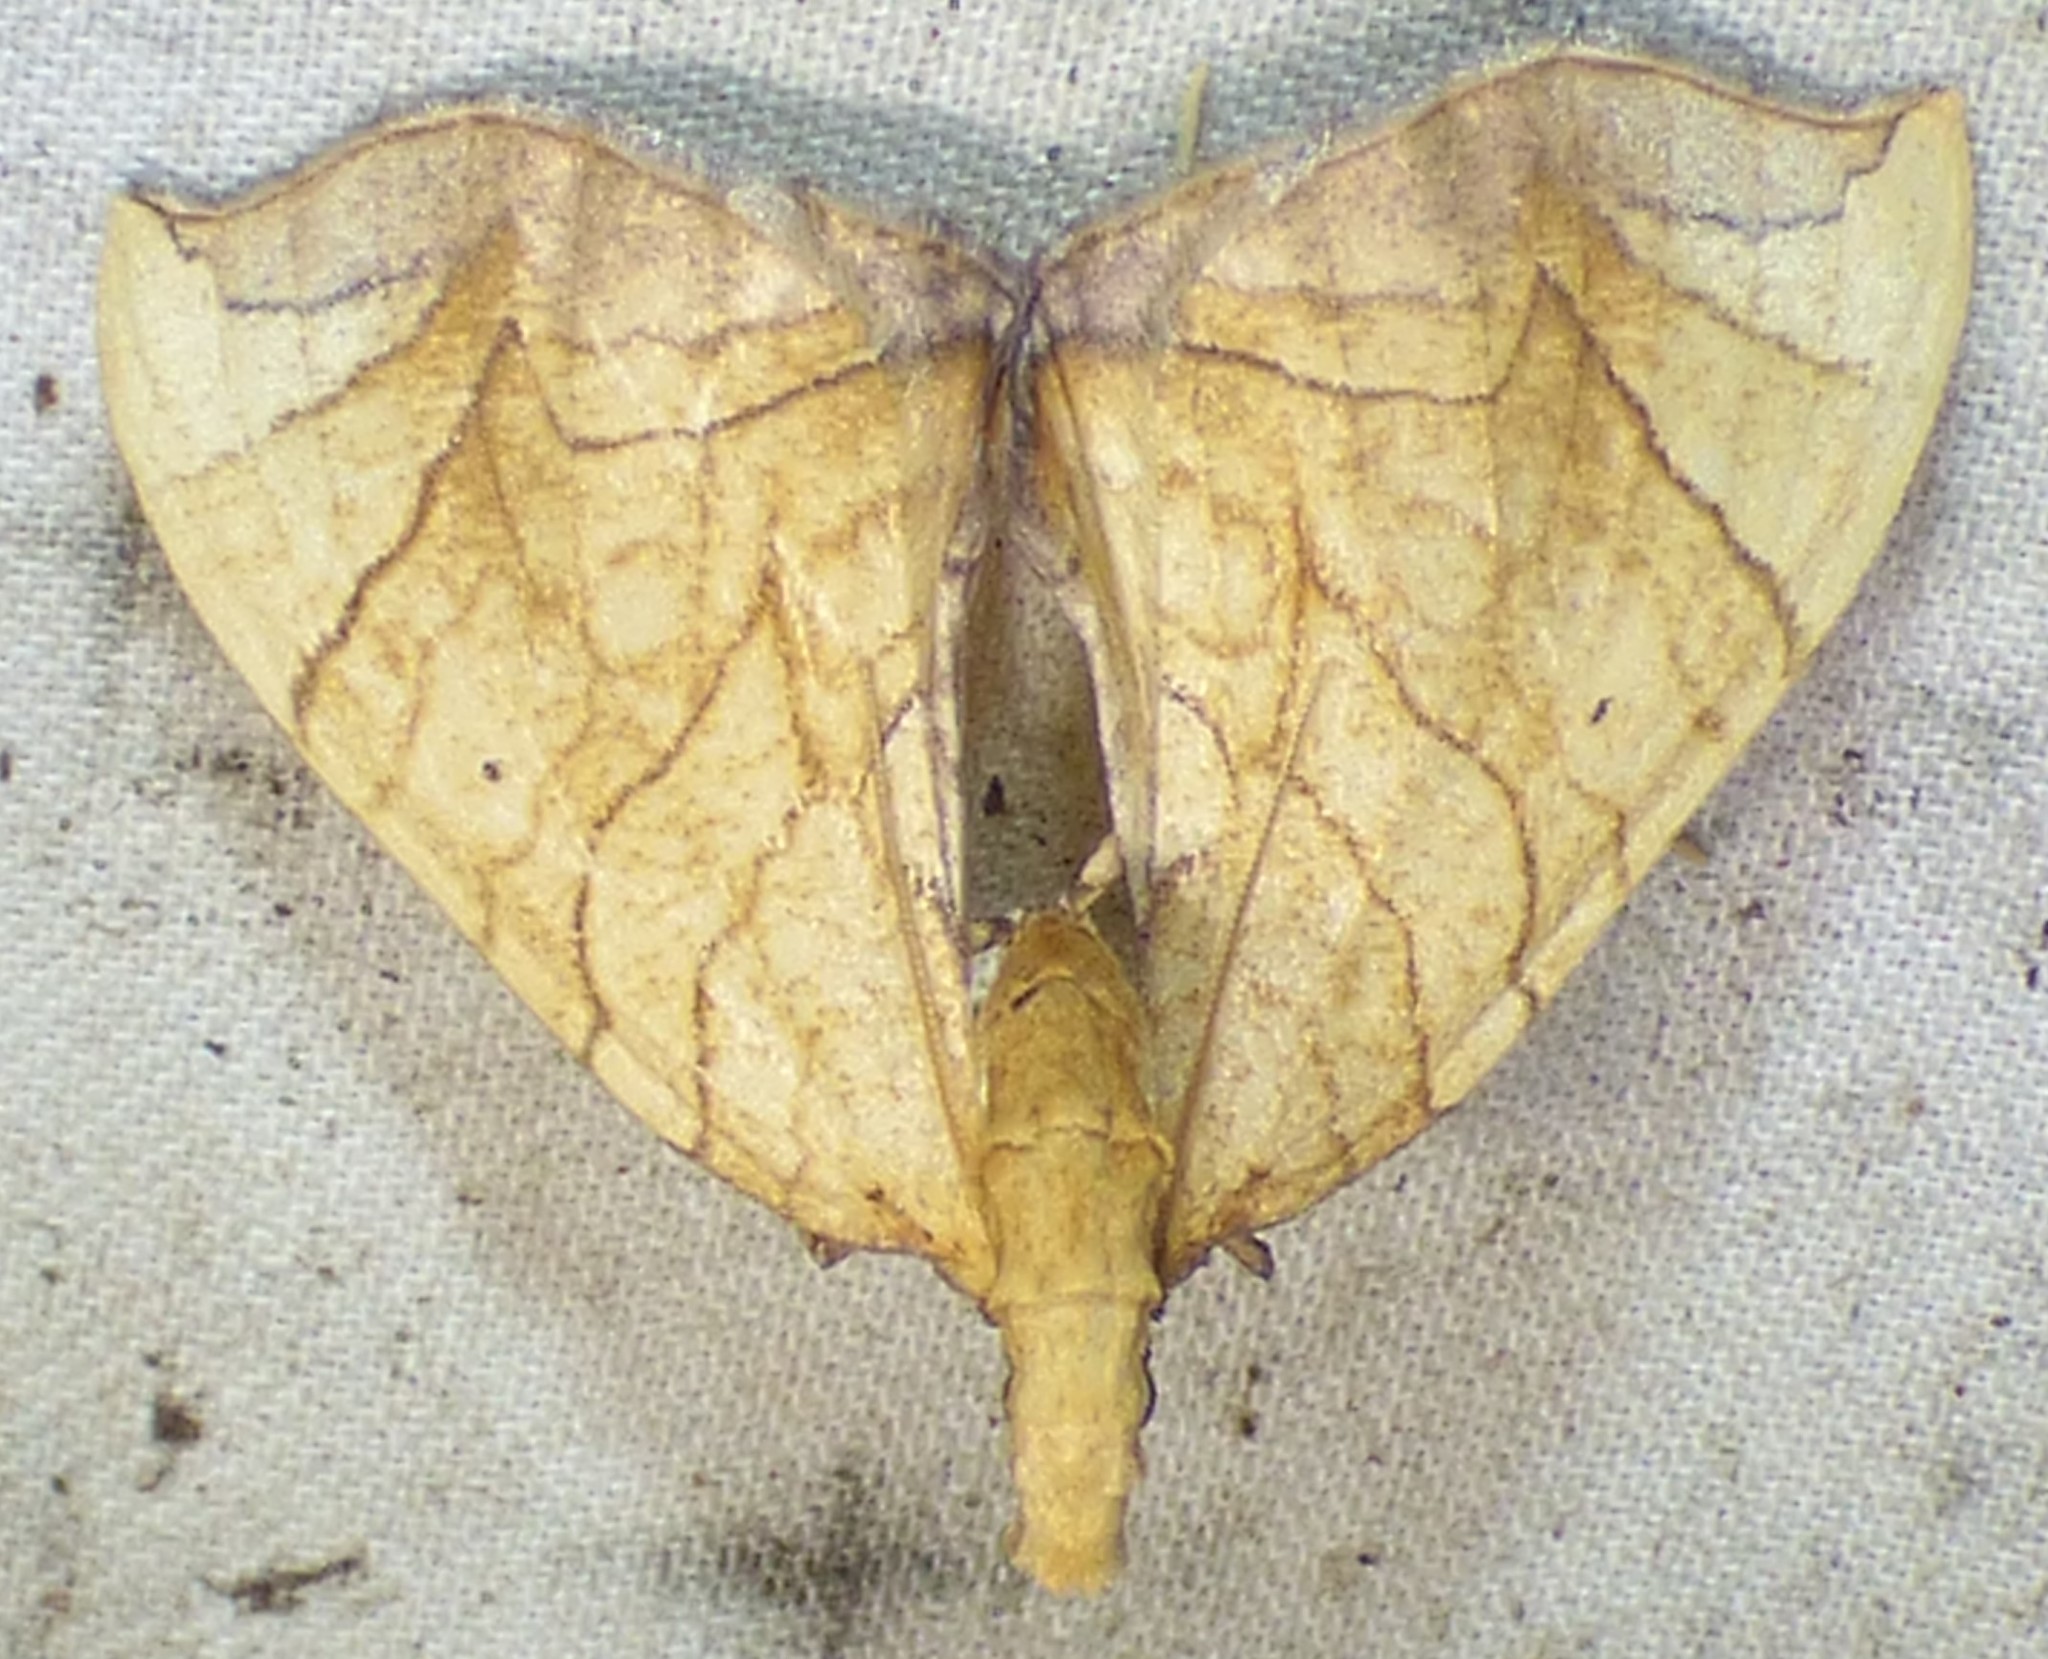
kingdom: Animalia
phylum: Arthropoda
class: Insecta
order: Lepidoptera
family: Geometridae
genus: Eulithis
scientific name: Eulithis
